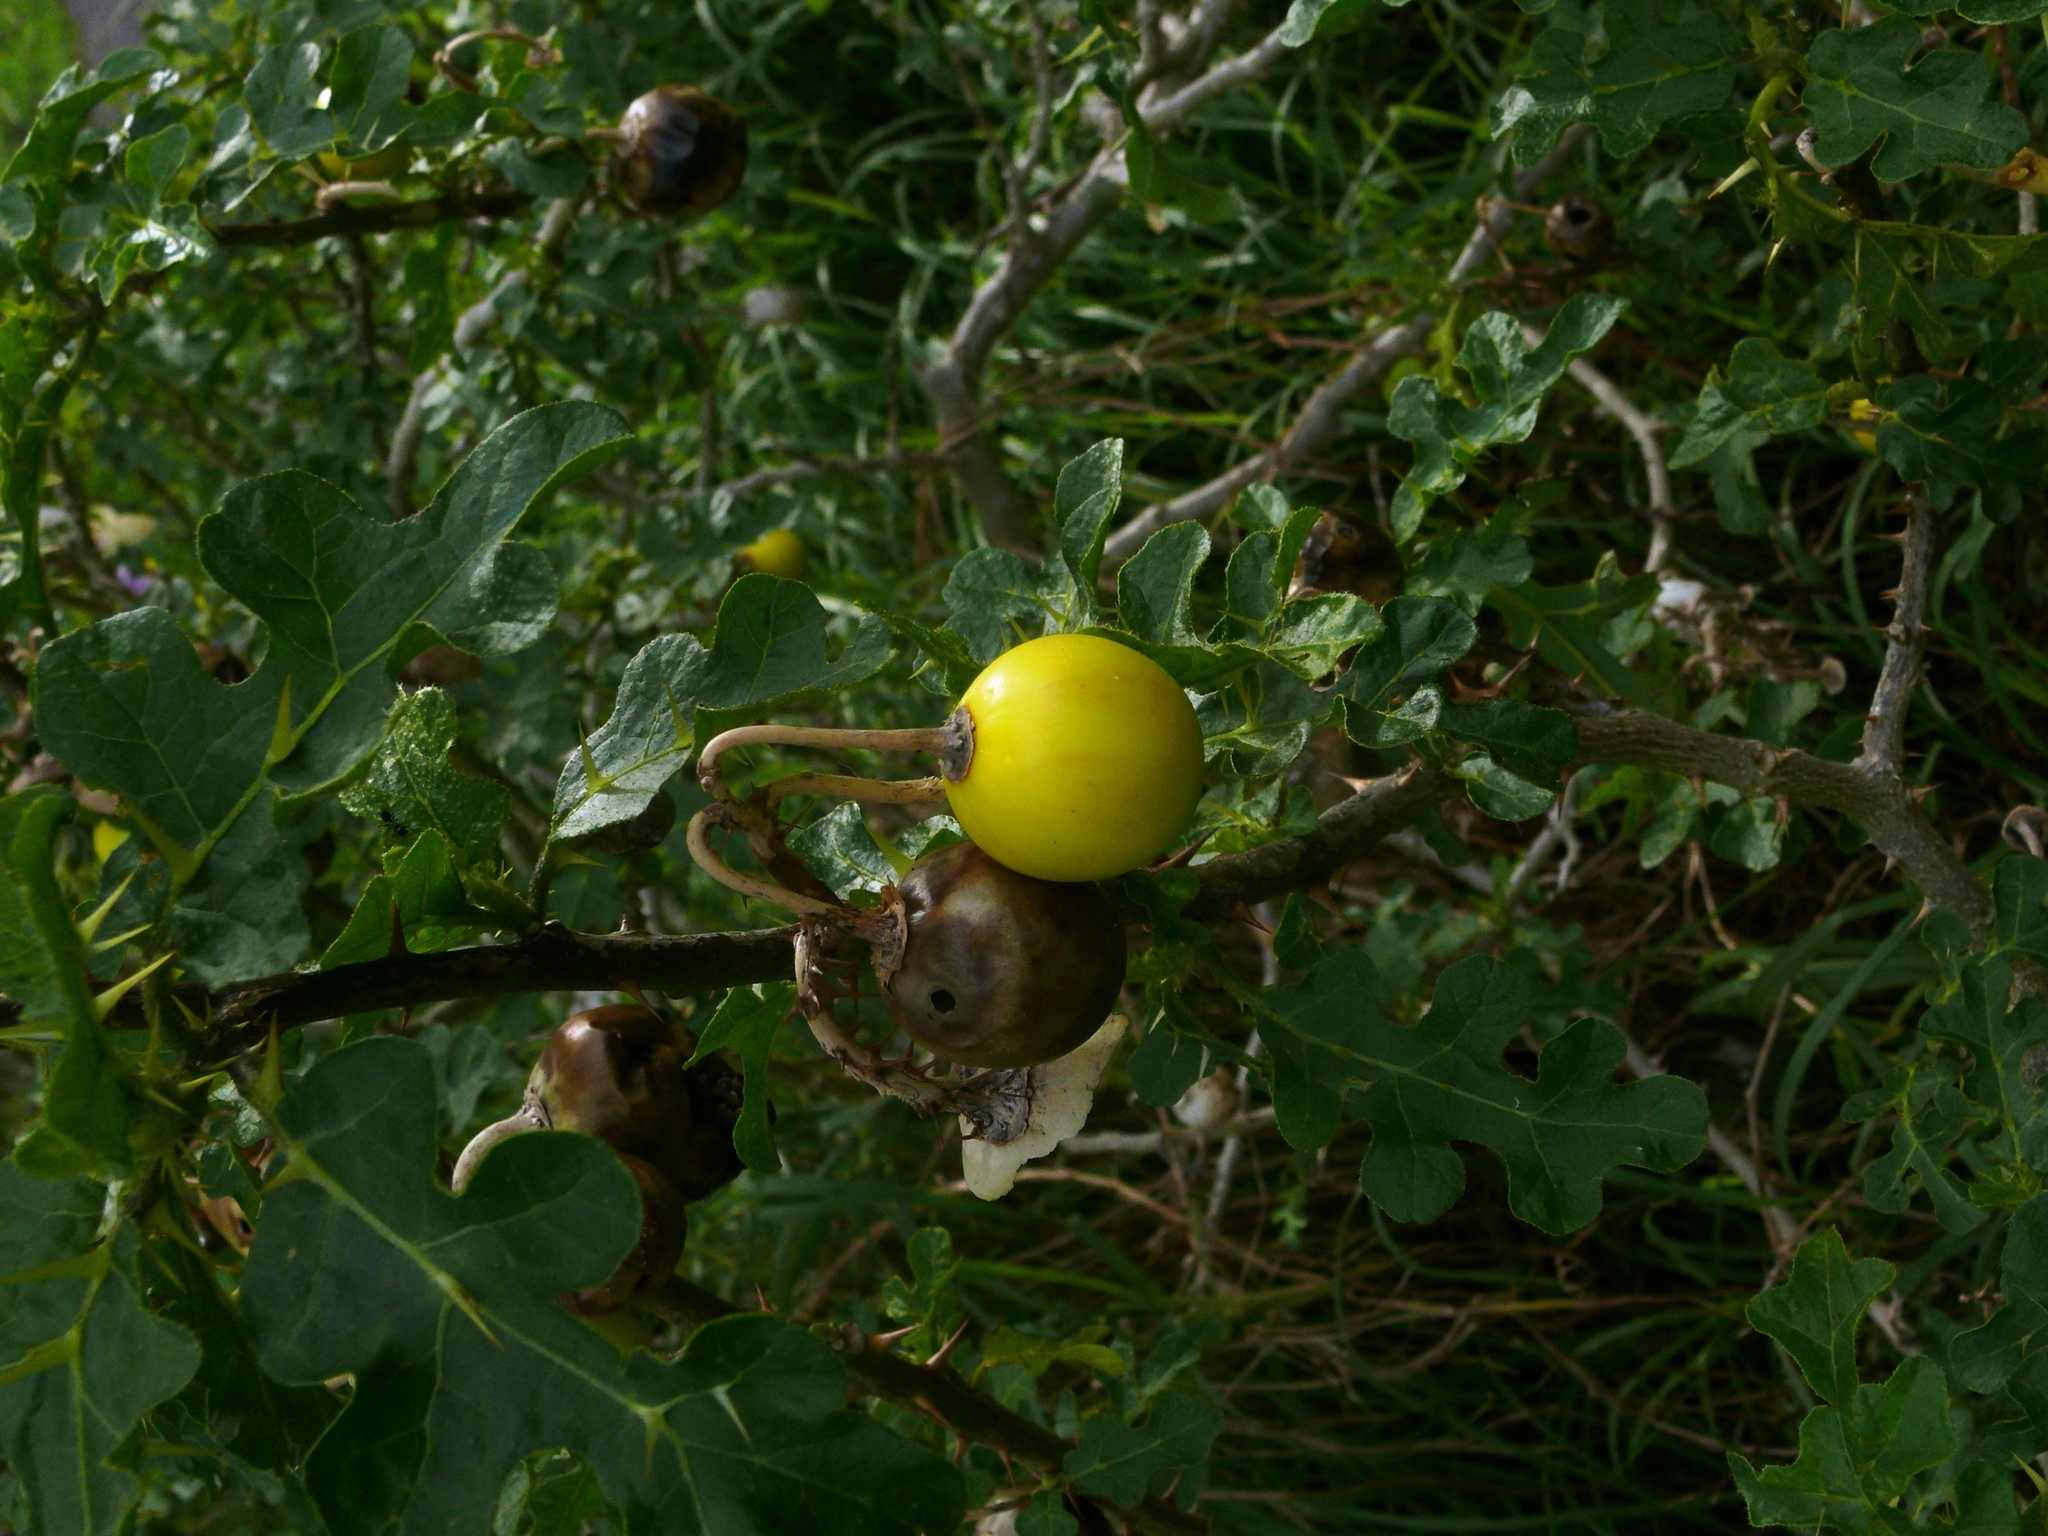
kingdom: Plantae
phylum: Tracheophyta
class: Magnoliopsida
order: Solanales
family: Solanaceae
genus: Solanum
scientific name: Solanum linnaeanum
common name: Nightshade
